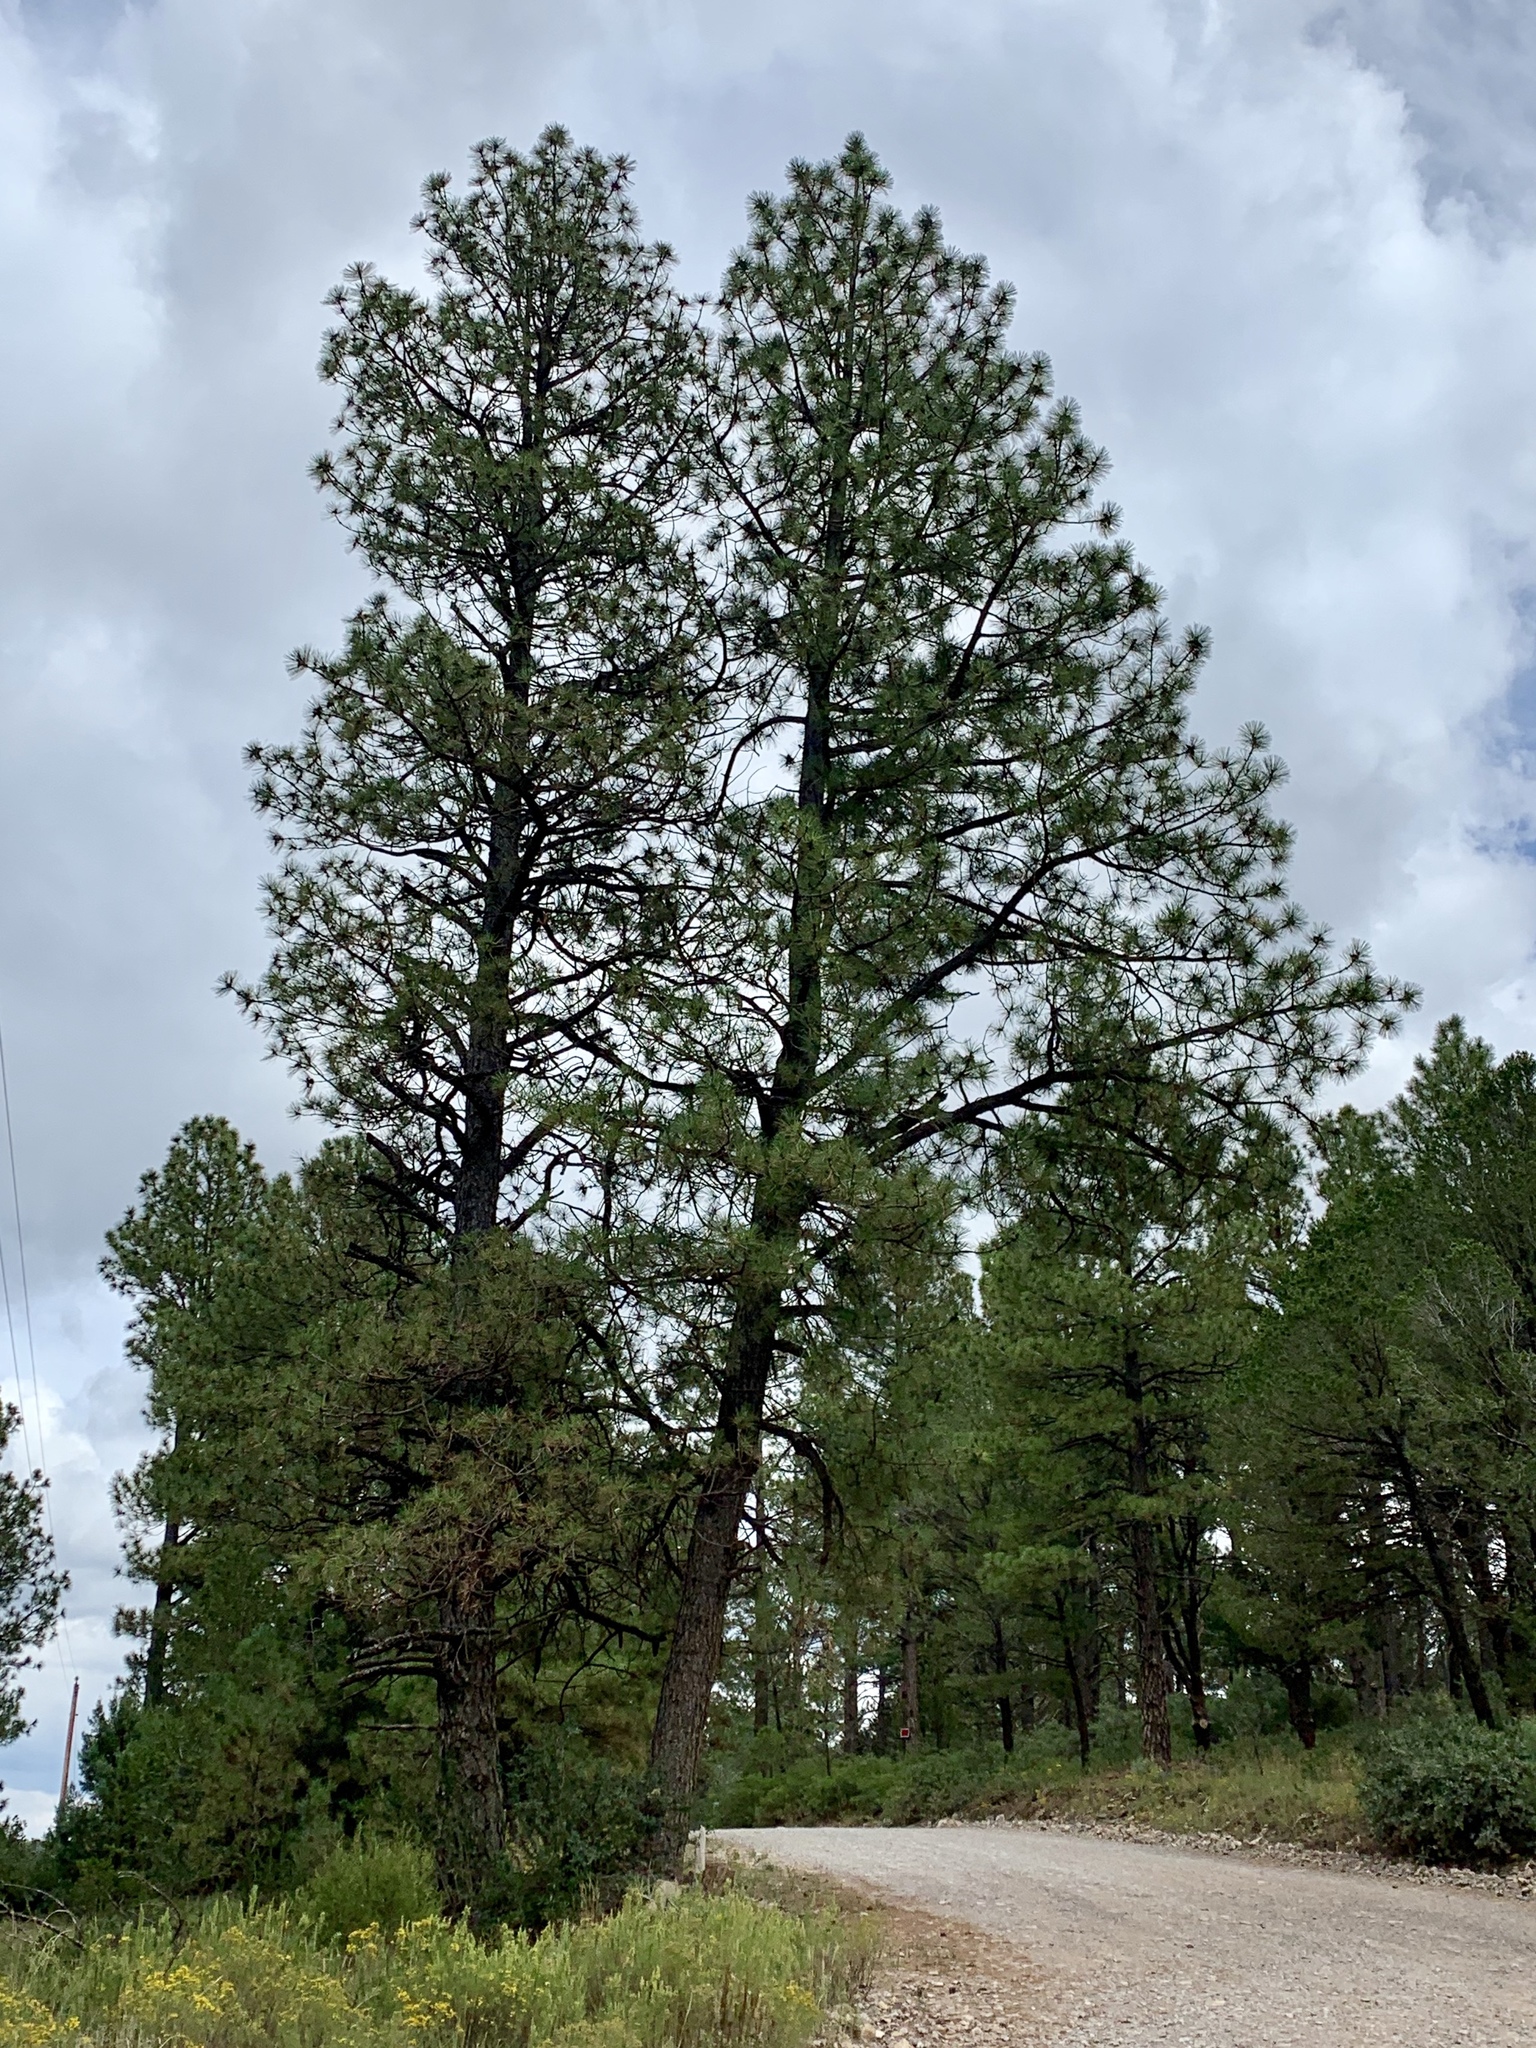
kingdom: Plantae
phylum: Tracheophyta
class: Pinopsida
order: Pinales
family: Pinaceae
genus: Pinus
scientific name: Pinus ponderosa
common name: Western yellow-pine
